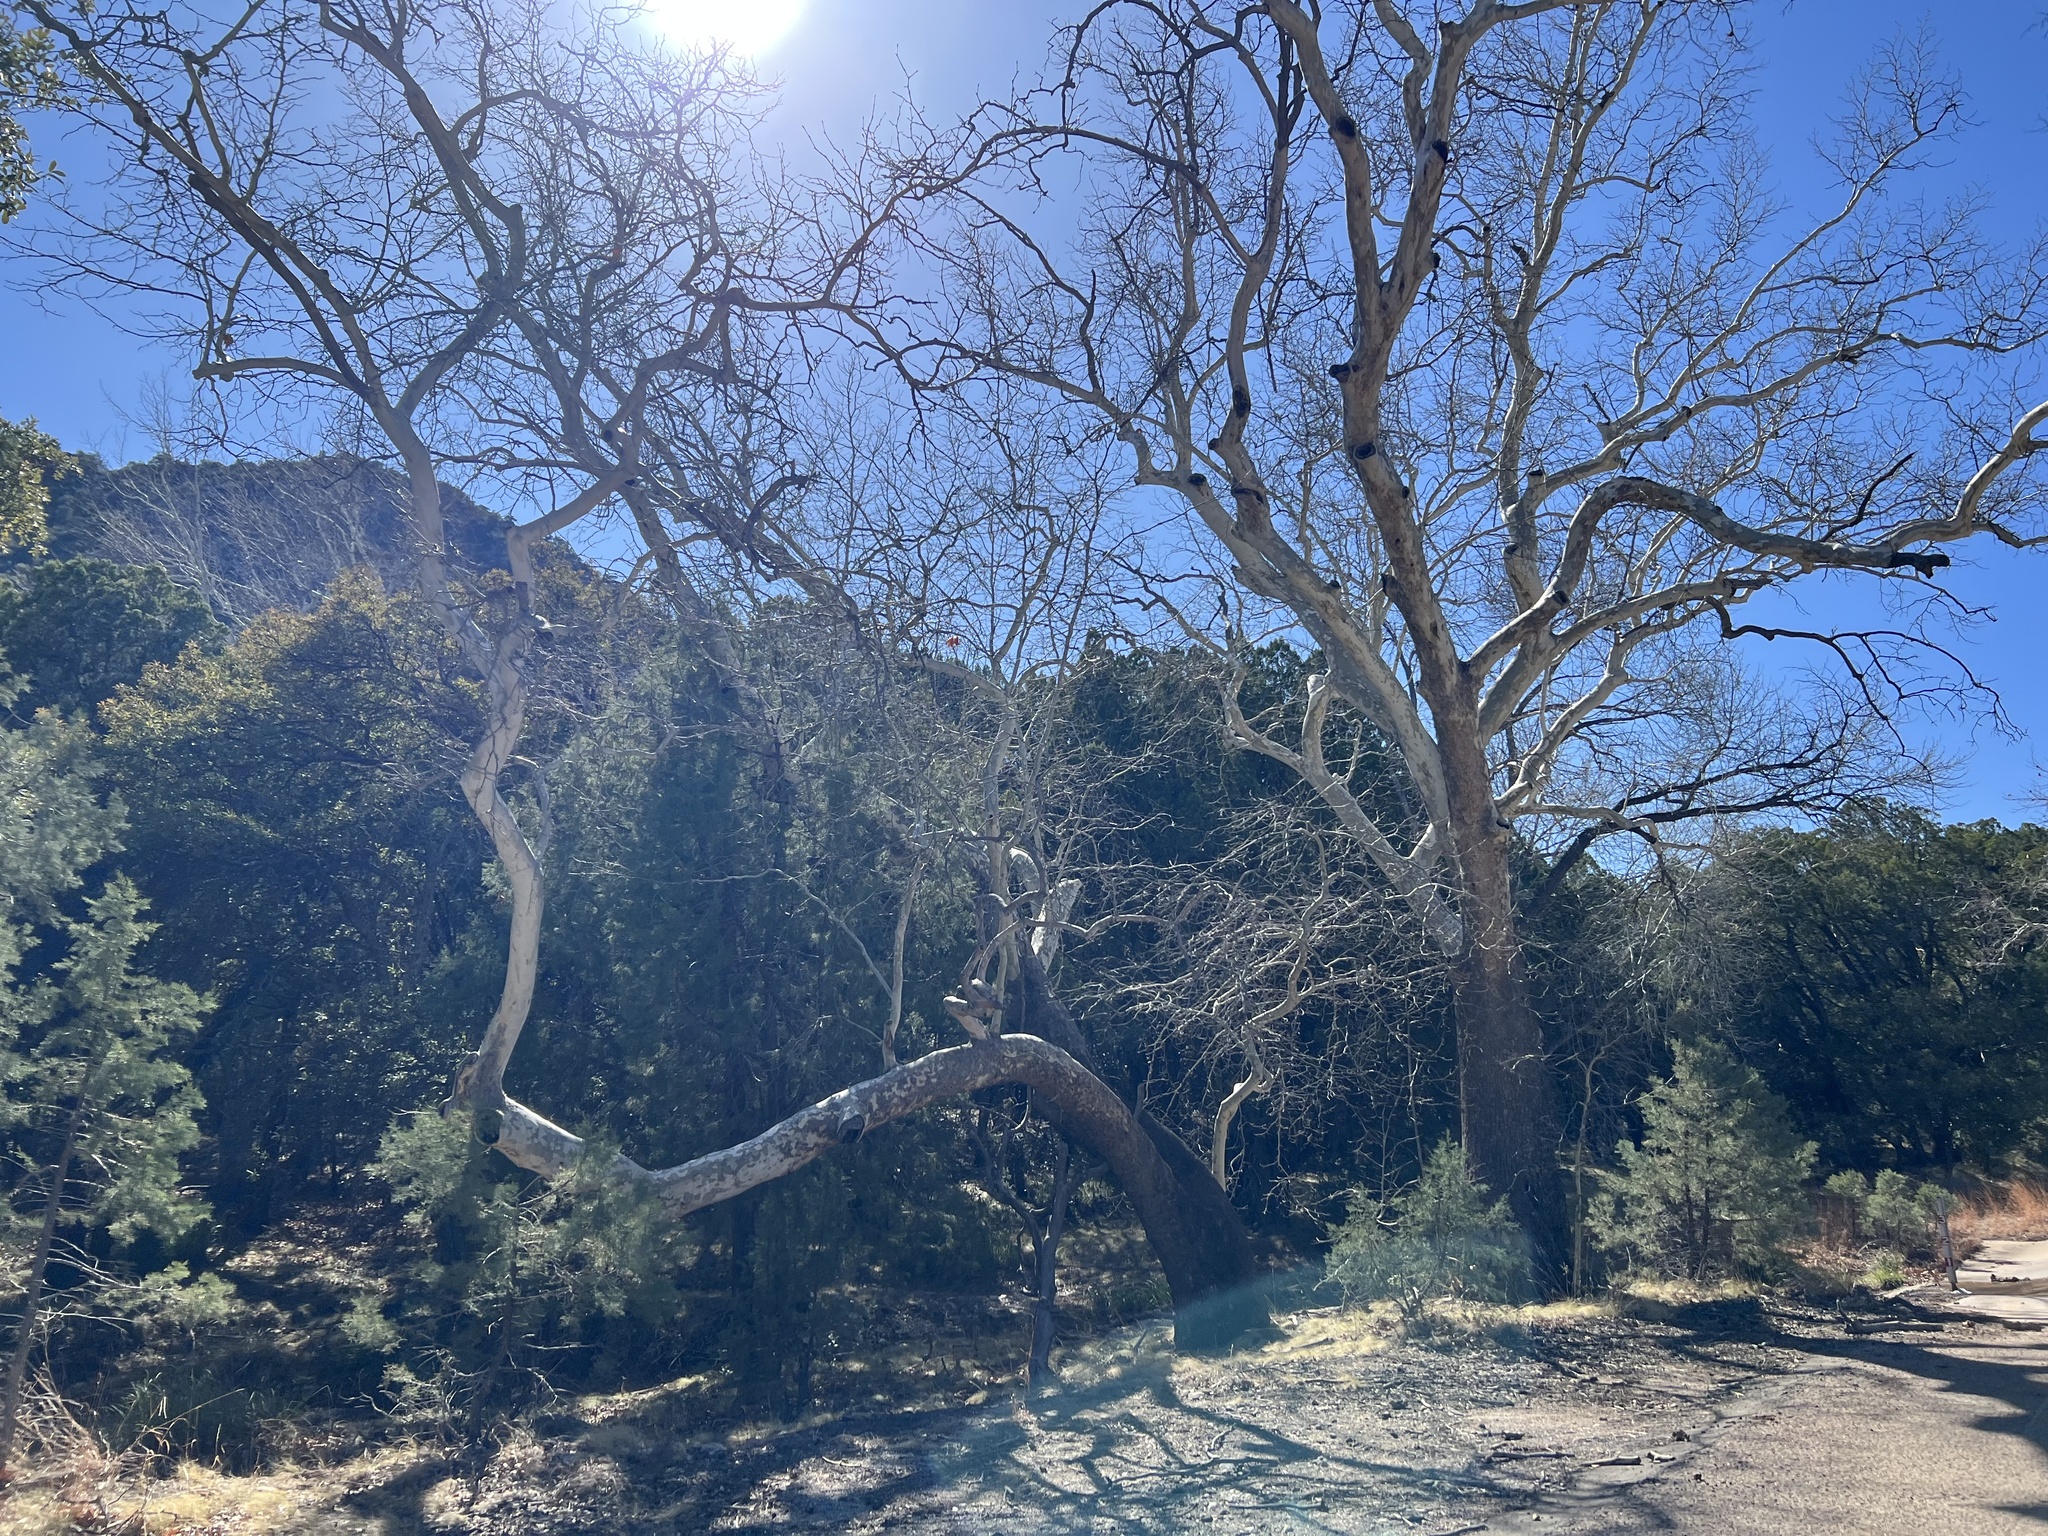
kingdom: Plantae
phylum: Tracheophyta
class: Magnoliopsida
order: Proteales
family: Platanaceae
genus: Platanus
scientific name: Platanus wrightii
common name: Arizona sycamore
